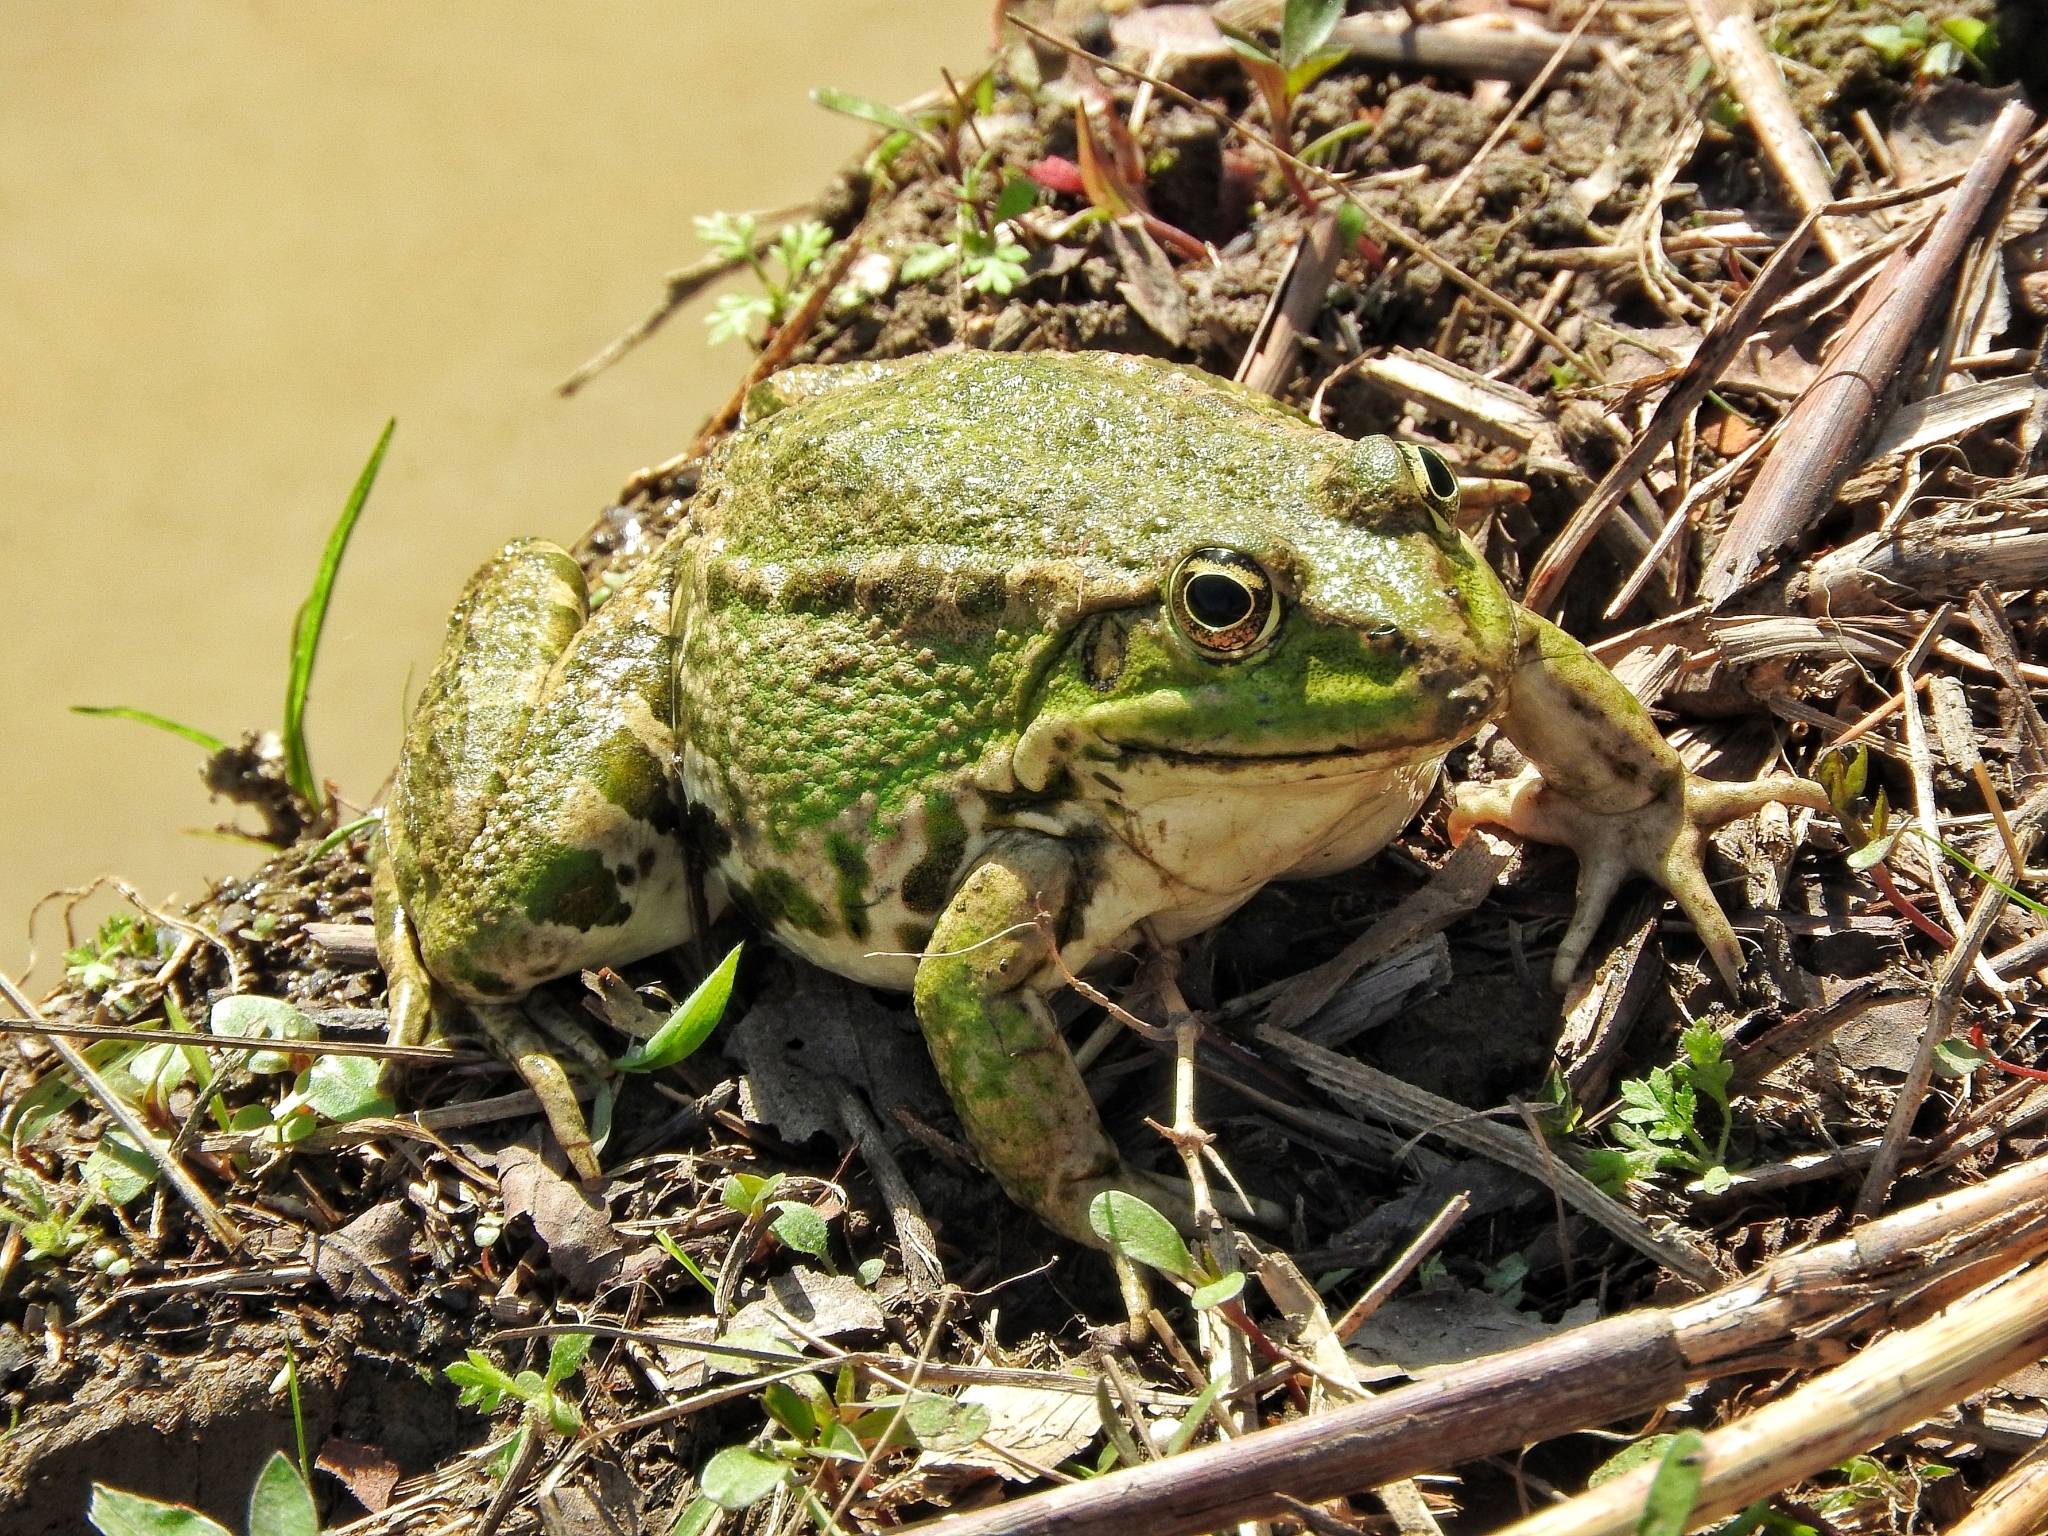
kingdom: Animalia
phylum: Chordata
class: Amphibia
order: Anura
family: Ranidae
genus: Pelophylax
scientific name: Pelophylax ridibundus
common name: Marsh frog
